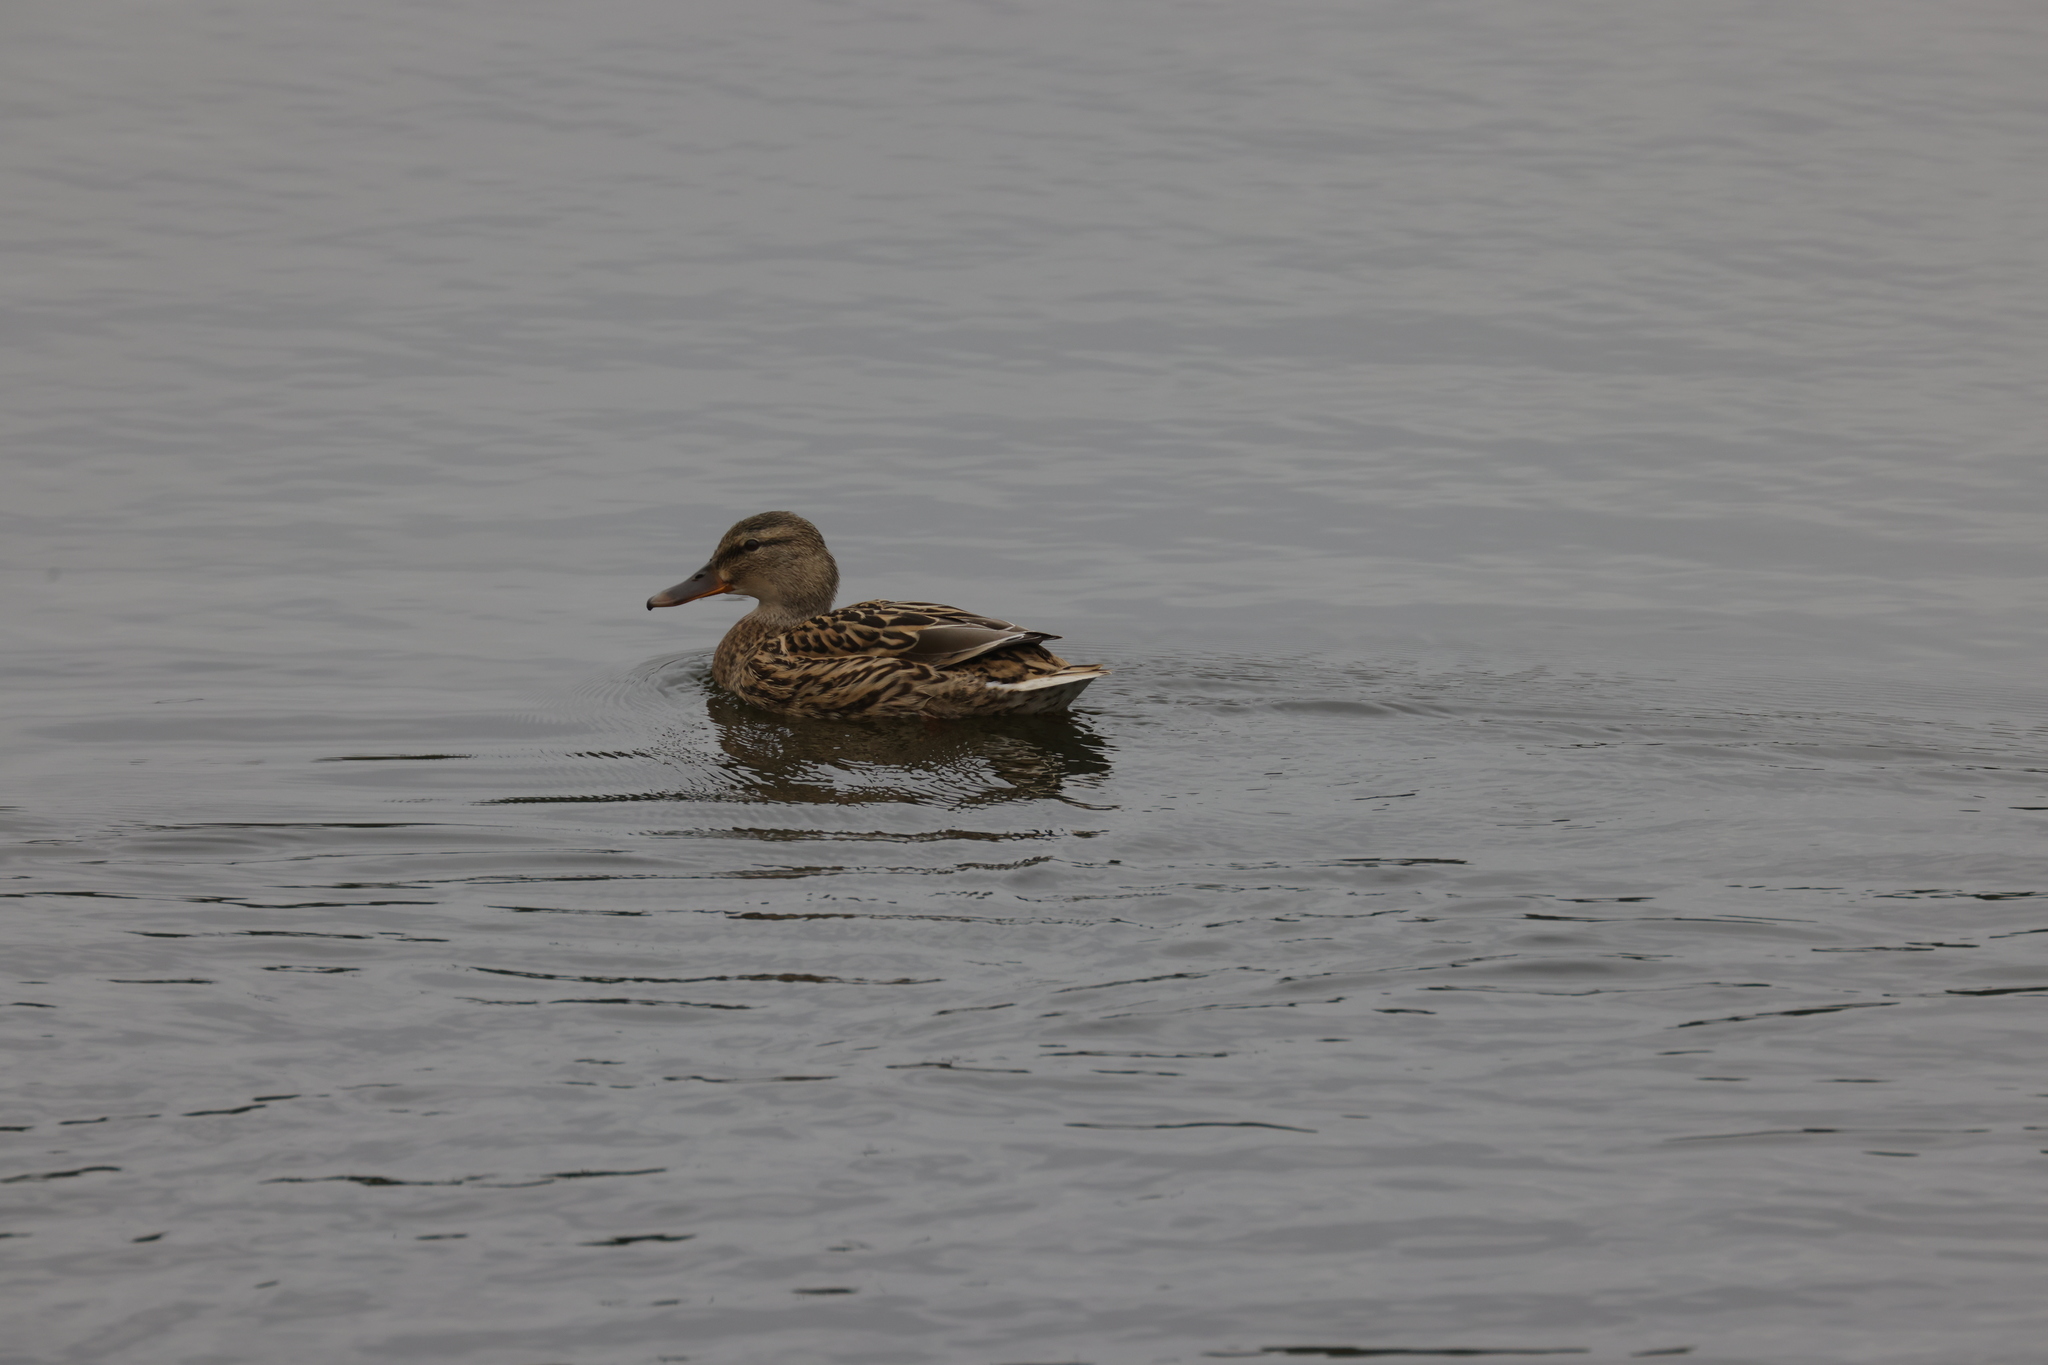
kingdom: Animalia
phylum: Chordata
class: Aves
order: Anseriformes
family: Anatidae
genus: Anas
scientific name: Anas platyrhynchos
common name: Mallard
